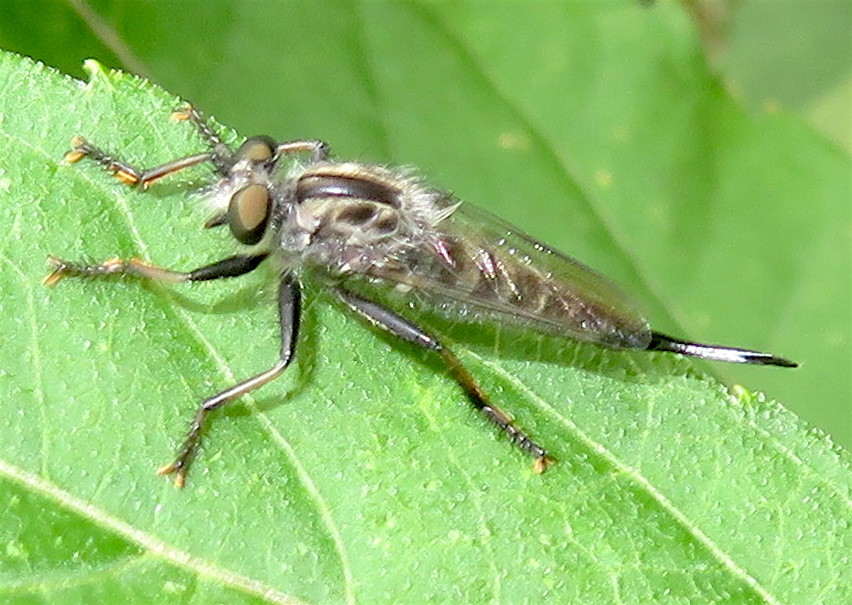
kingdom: Animalia
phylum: Arthropoda
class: Insecta
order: Diptera
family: Asilidae
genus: Efferia
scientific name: Efferia aestuans
